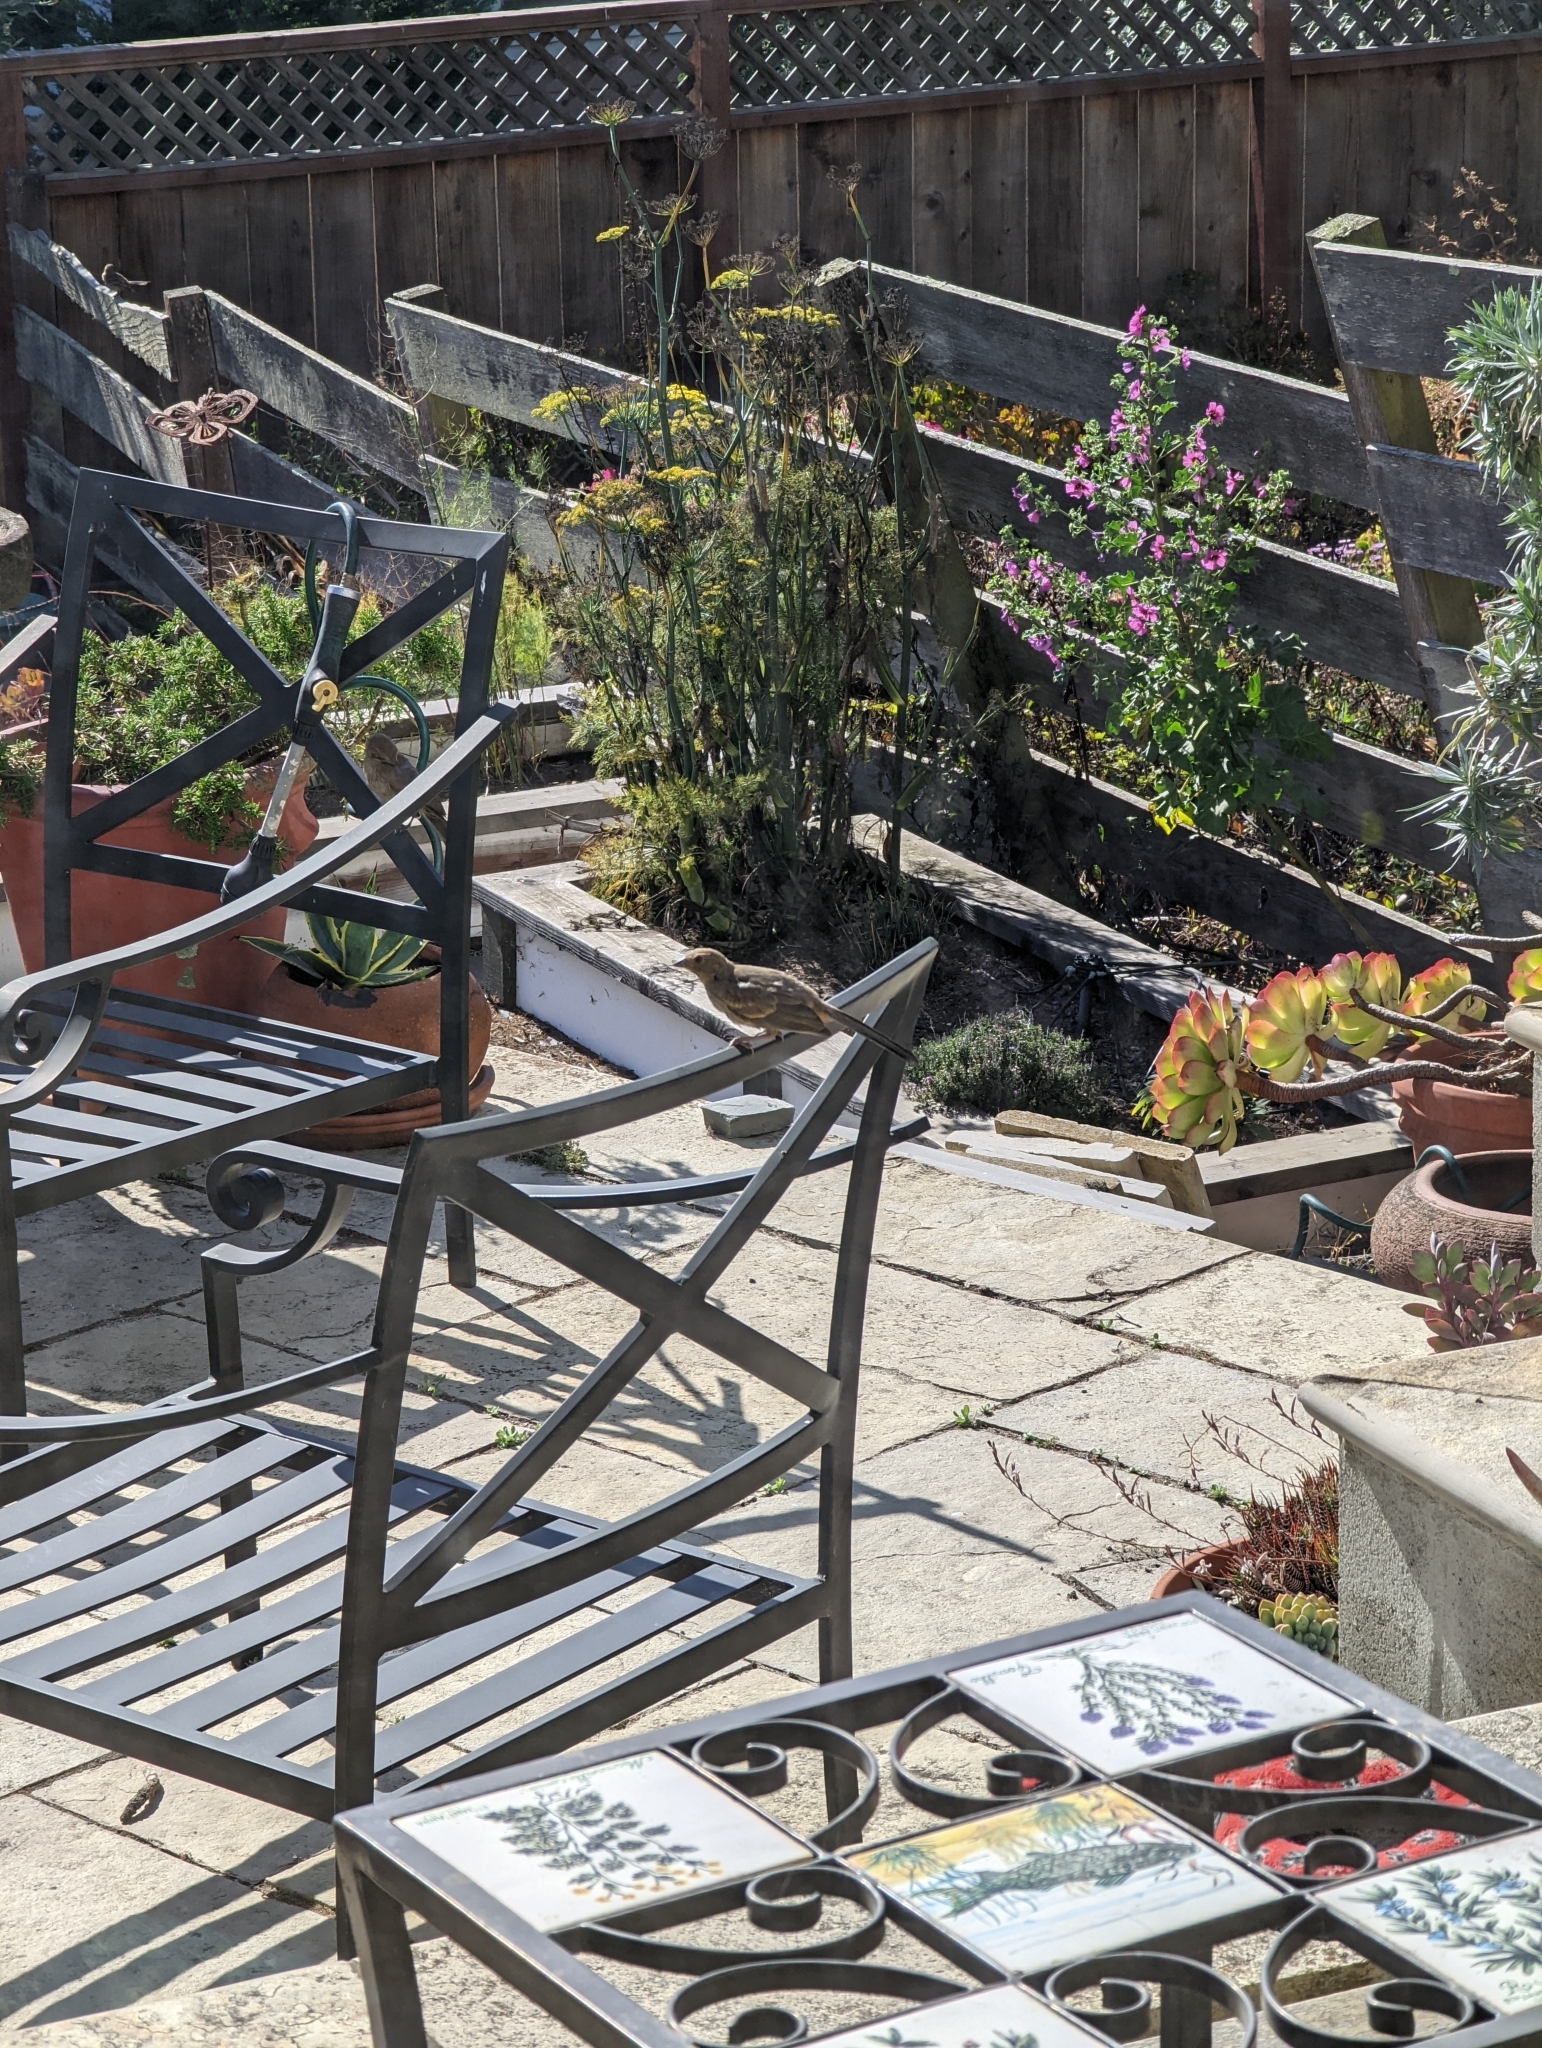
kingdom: Animalia
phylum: Chordata
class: Aves
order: Passeriformes
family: Passerellidae
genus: Melozone
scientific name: Melozone crissalis
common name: California towhee
